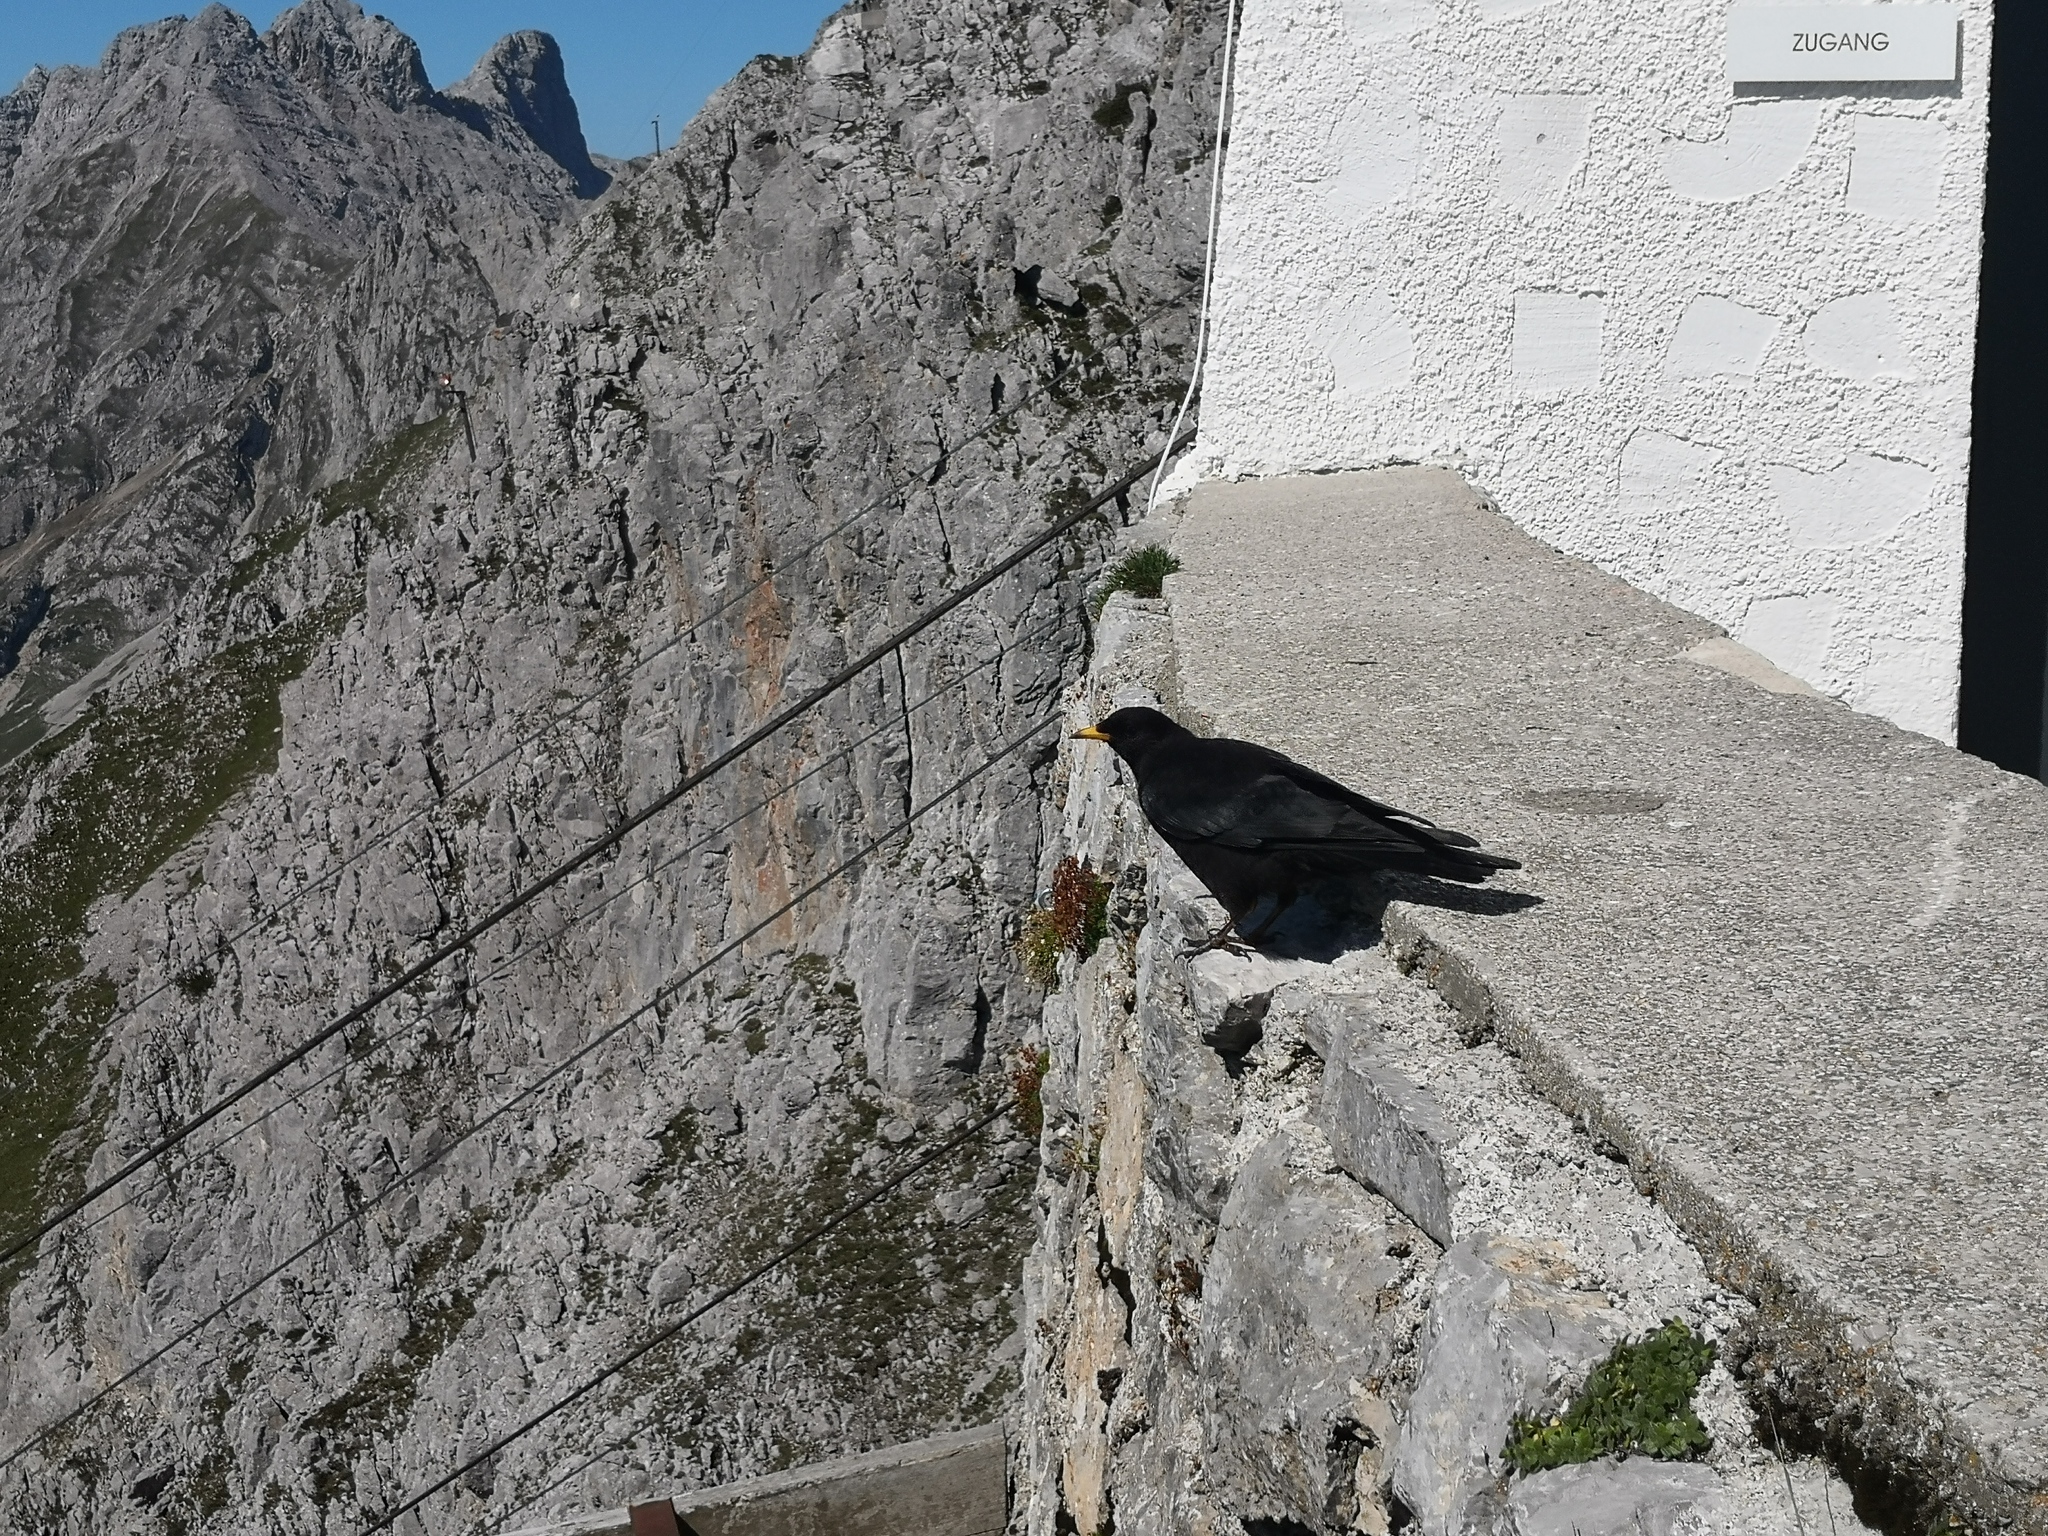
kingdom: Animalia
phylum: Chordata
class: Aves
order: Passeriformes
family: Corvidae
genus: Pyrrhocorax
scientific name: Pyrrhocorax graculus
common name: Alpine chough
